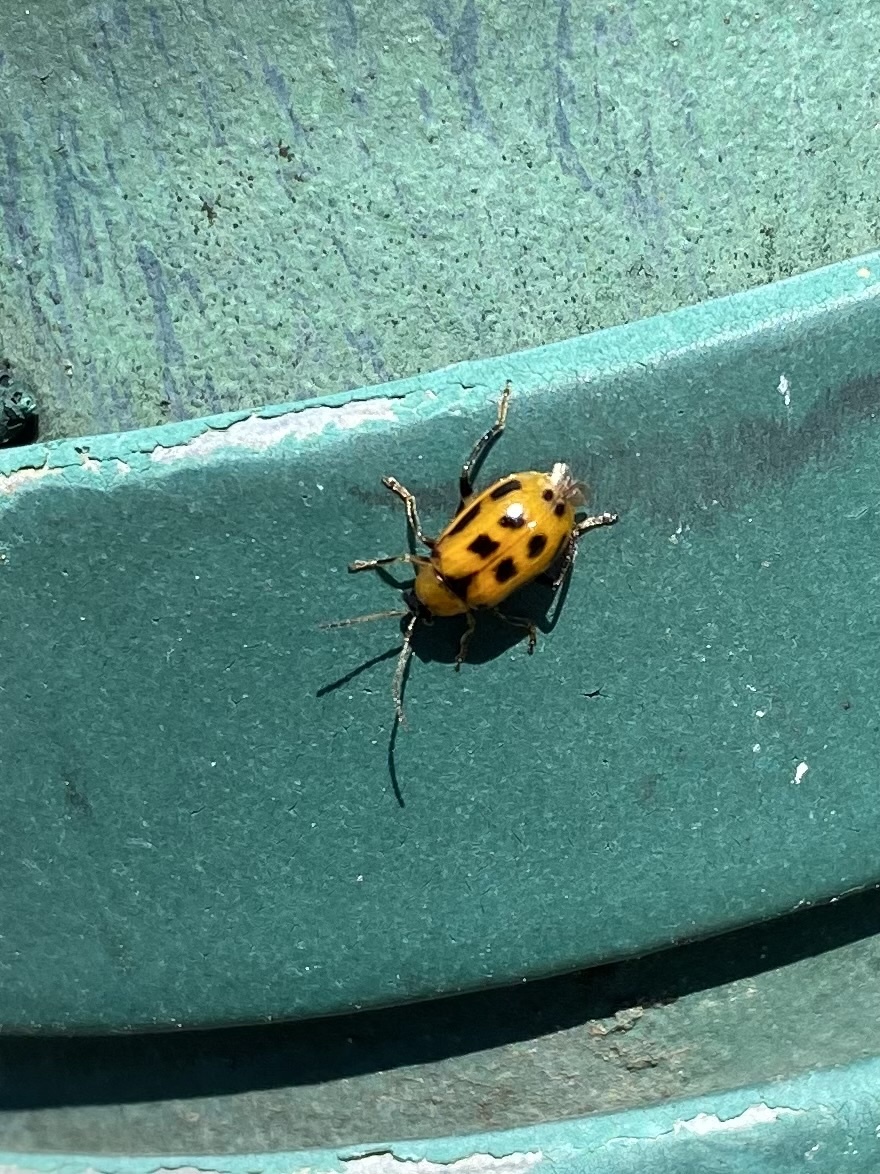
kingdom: Animalia
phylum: Arthropoda
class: Insecta
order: Coleoptera
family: Chrysomelidae
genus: Cerotoma
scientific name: Cerotoma trifurcata
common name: Bean leaf beetle
